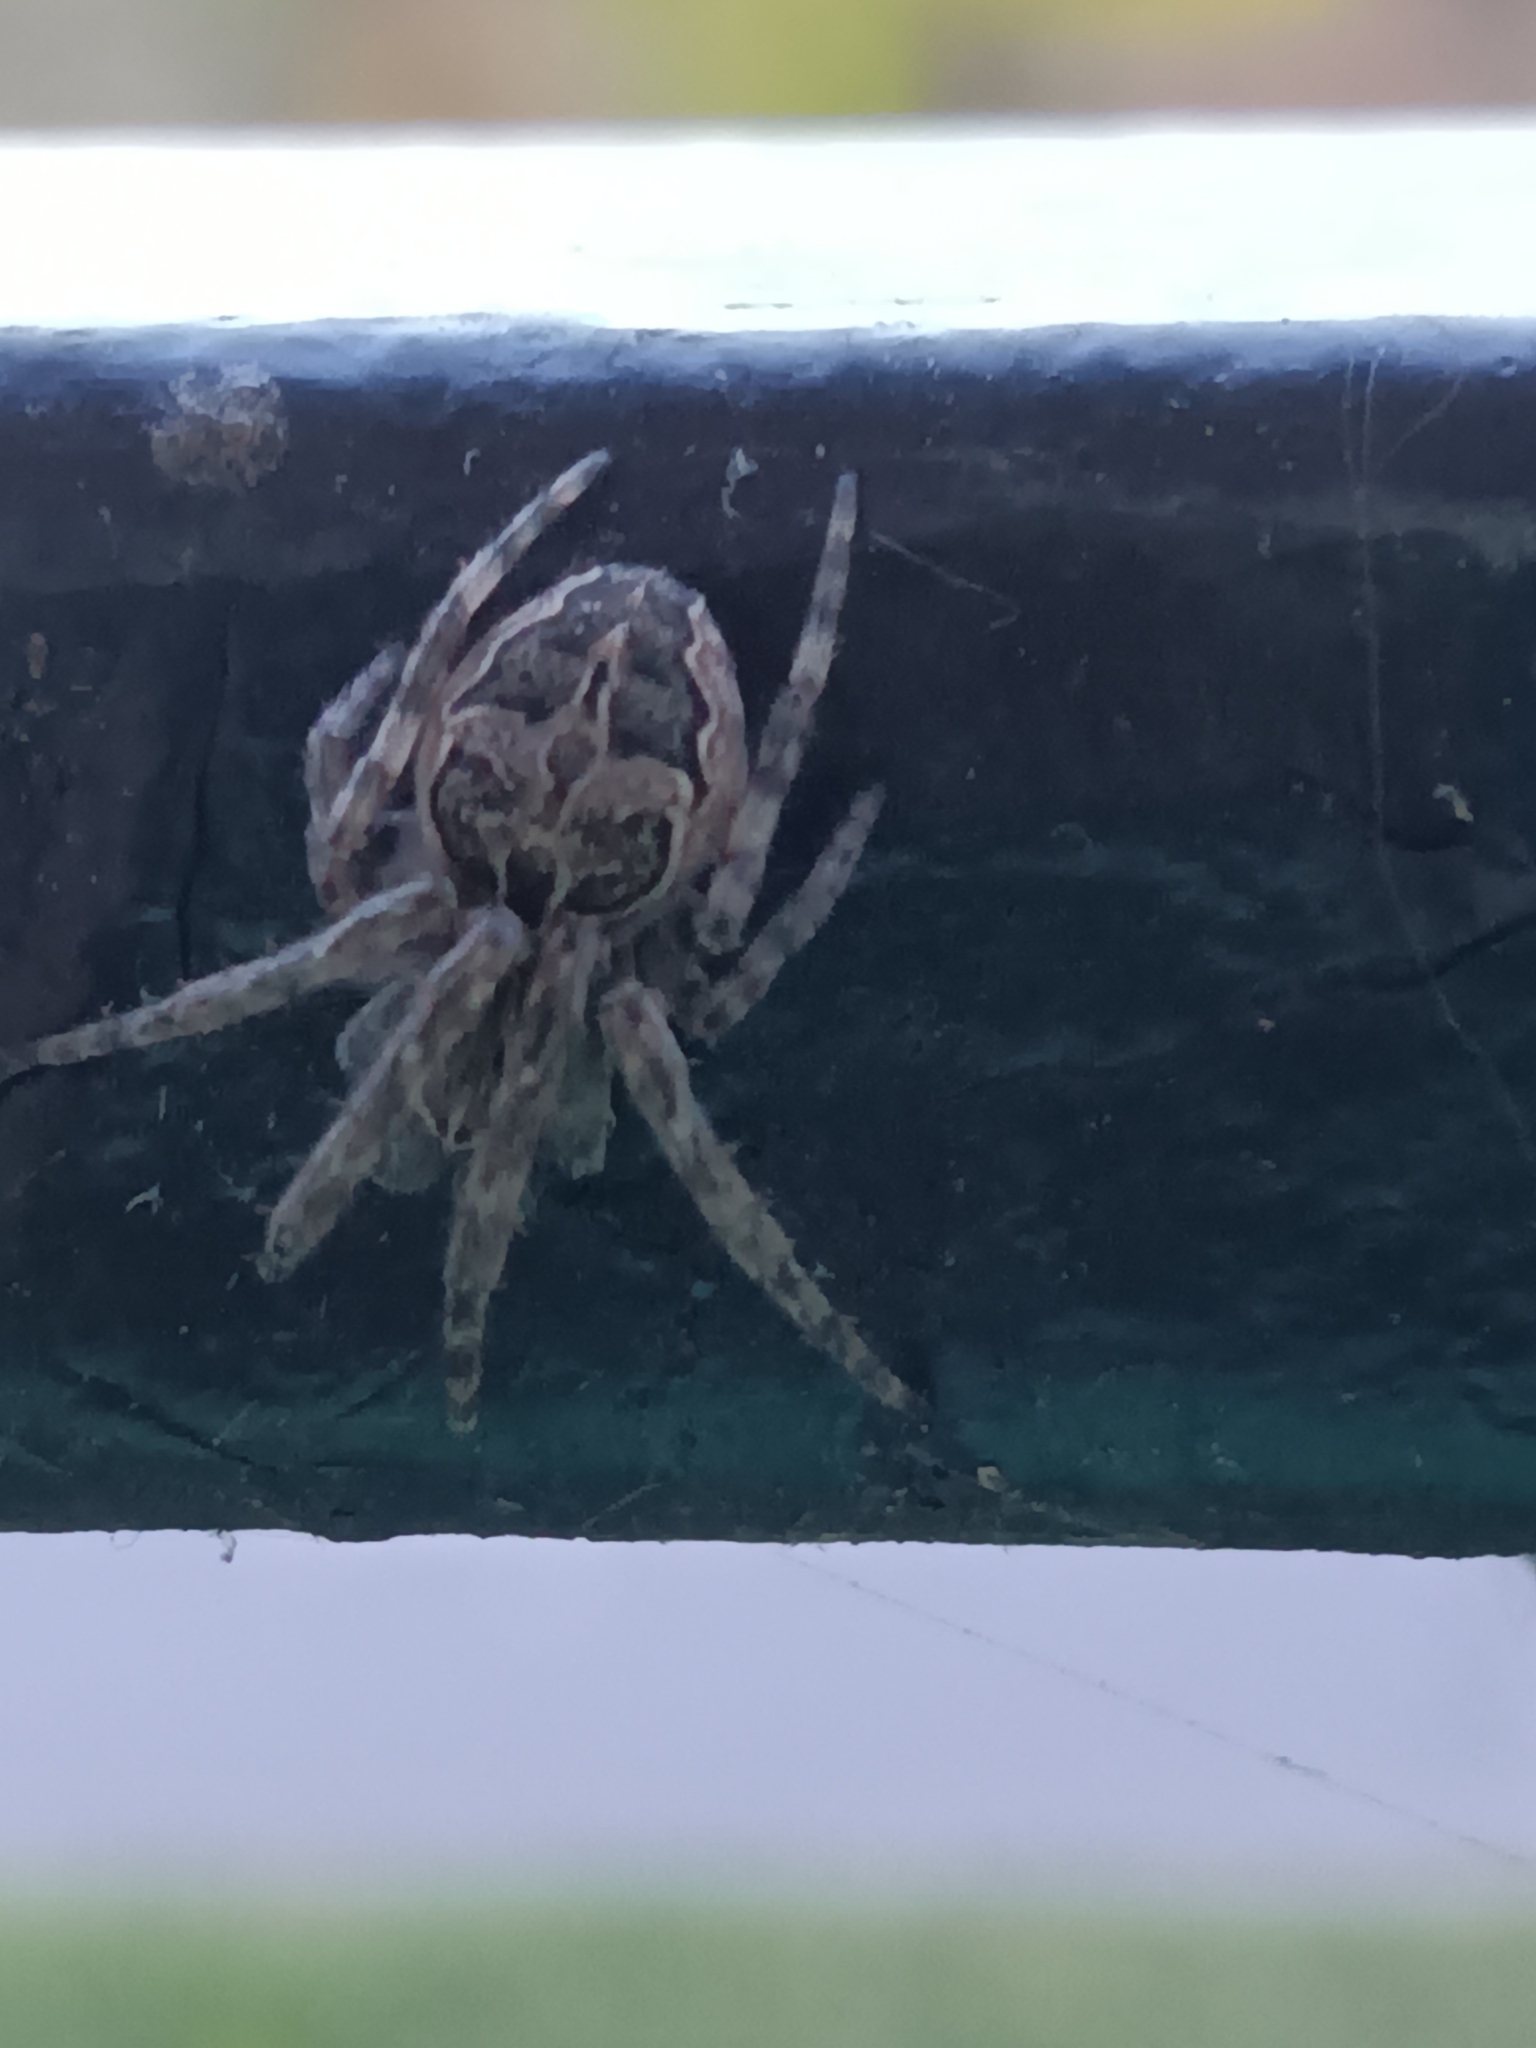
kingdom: Animalia
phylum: Arthropoda
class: Arachnida
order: Araneae
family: Araneidae
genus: Larinioides
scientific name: Larinioides sclopetarius
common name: Bridge orbweaver
